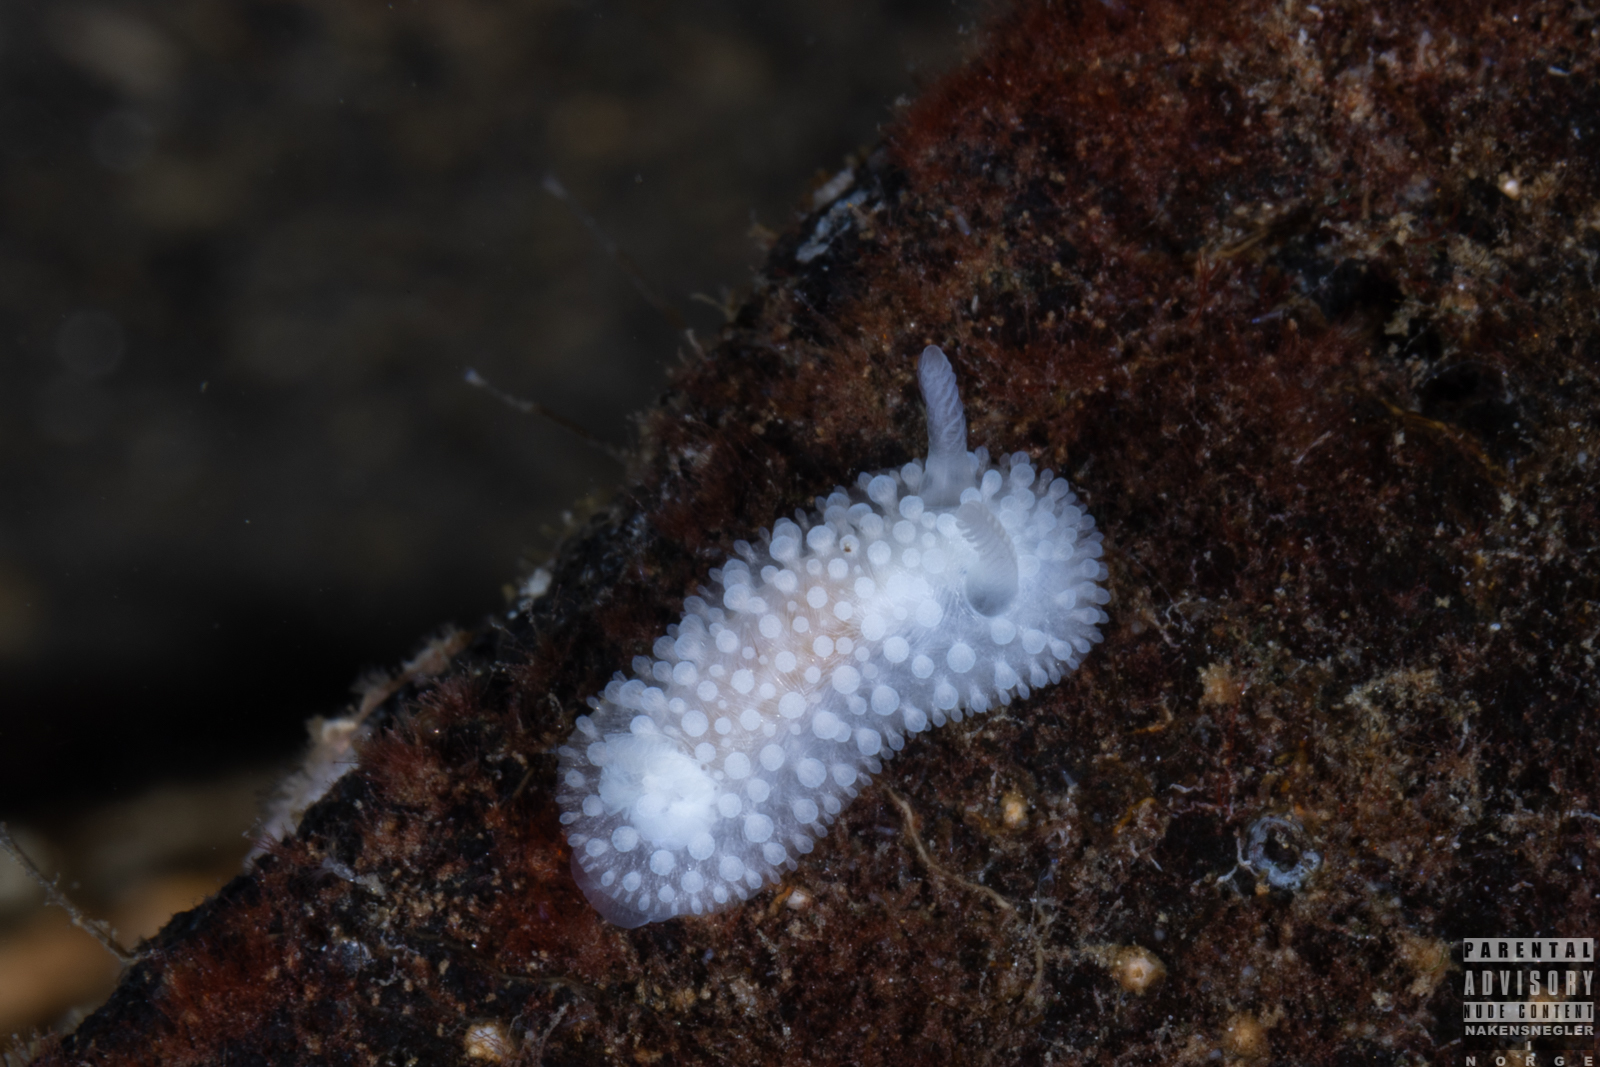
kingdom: Animalia
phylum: Mollusca
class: Gastropoda
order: Nudibranchia
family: Onchidorididae
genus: Onchidoris
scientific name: Onchidoris muricata
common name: Rough doris
